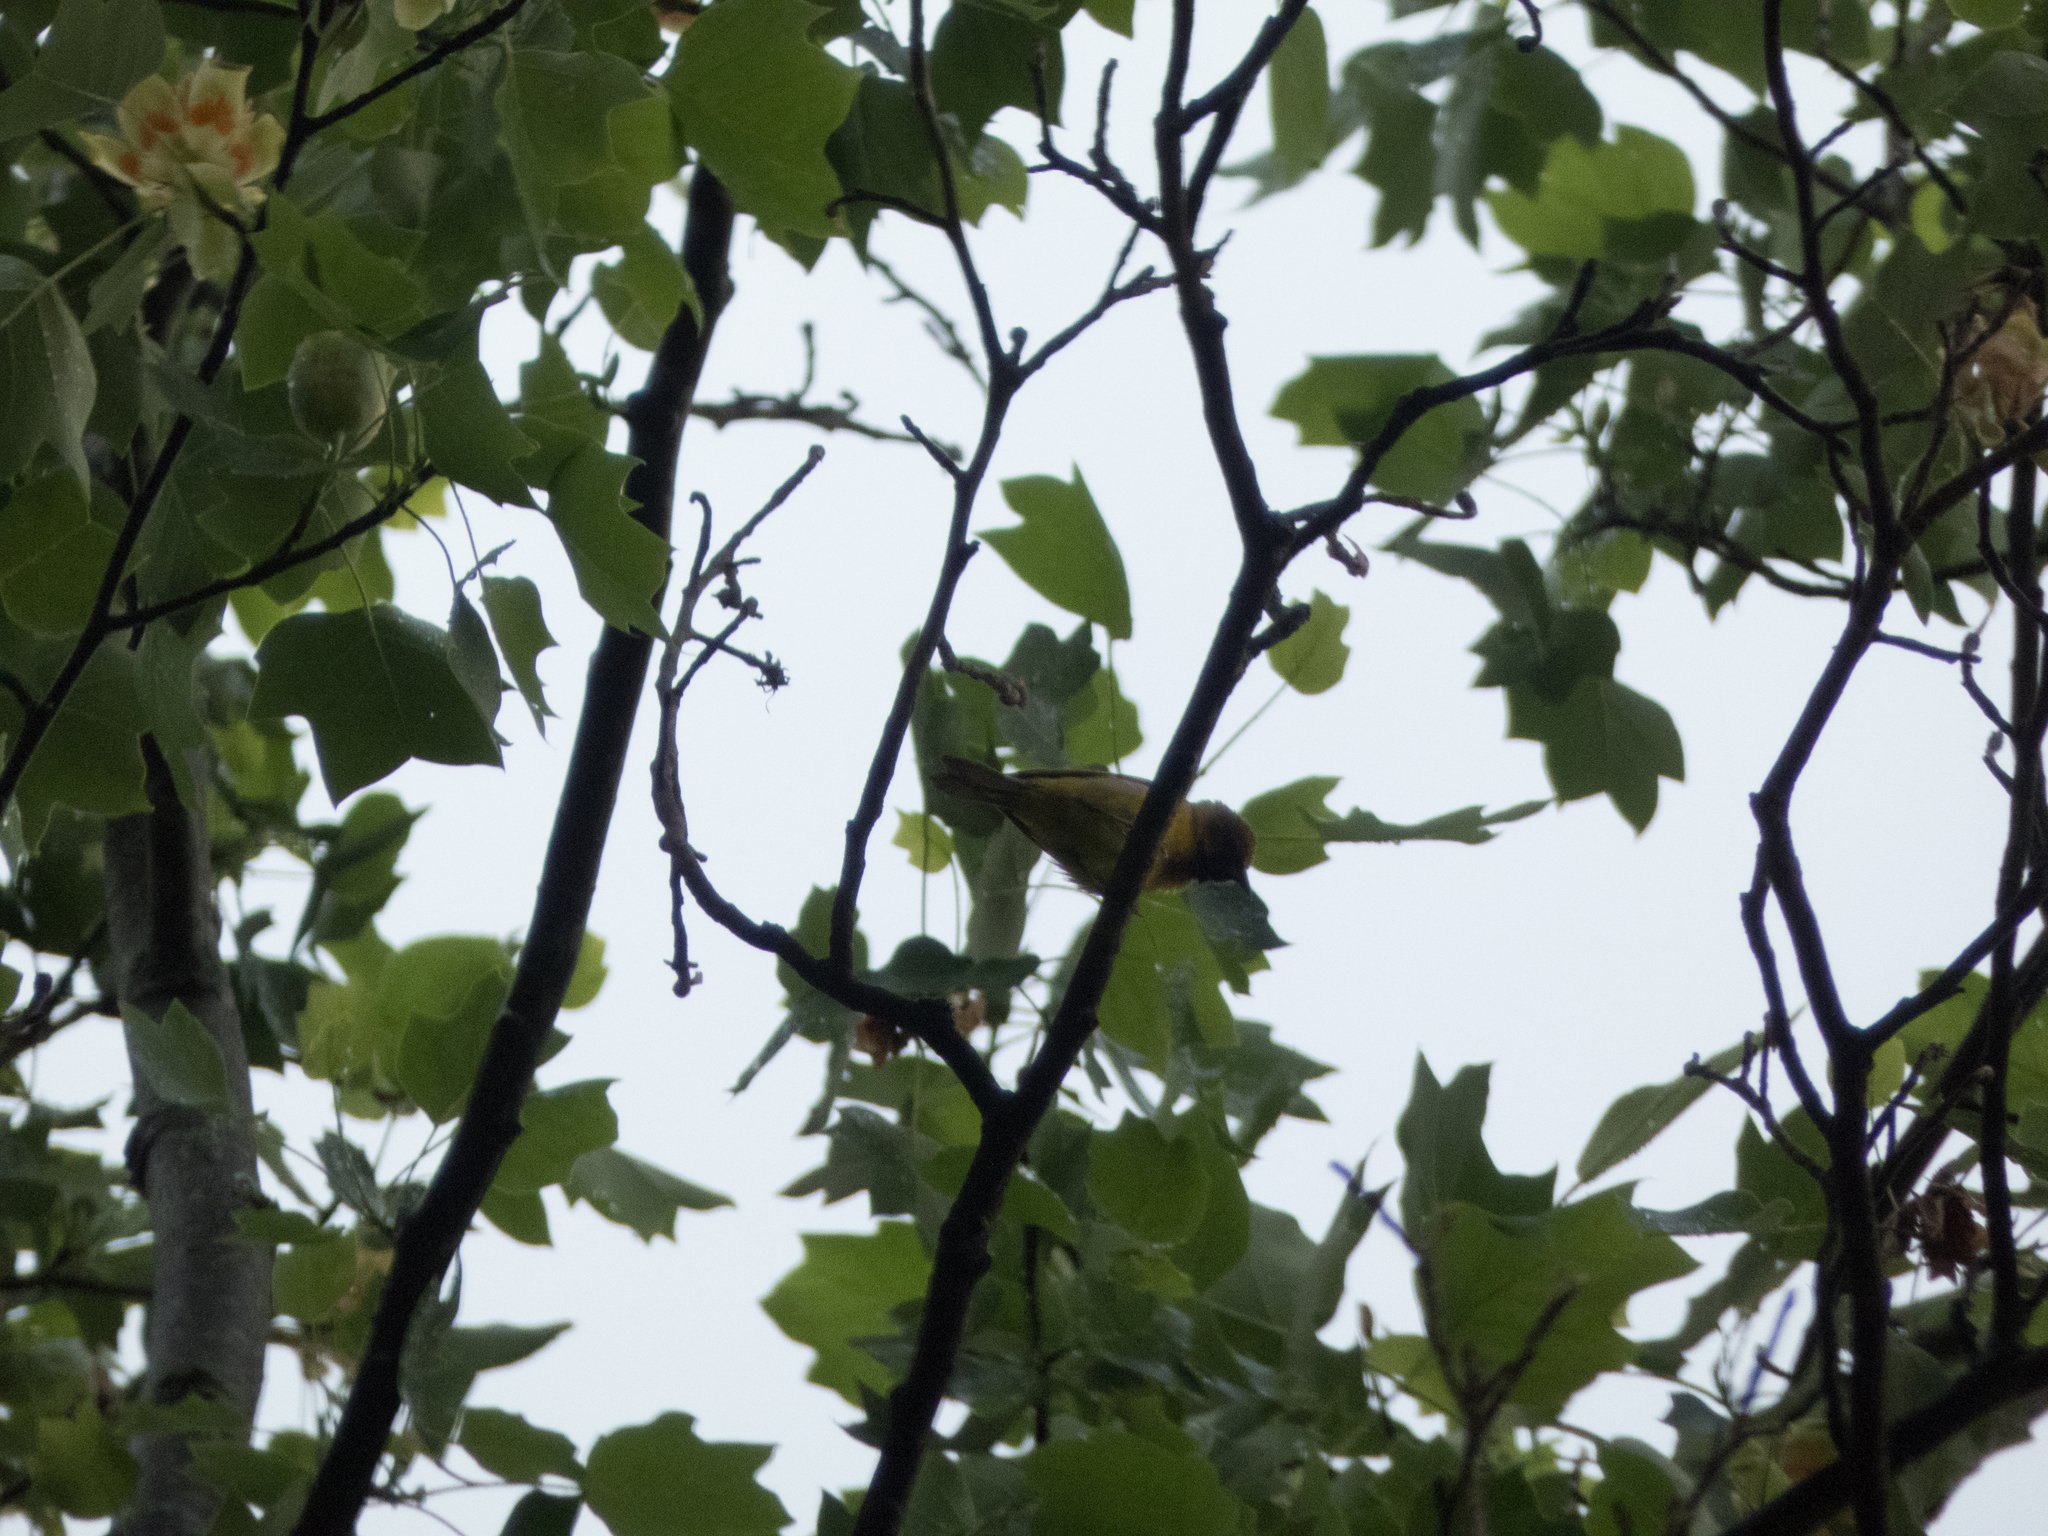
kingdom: Animalia
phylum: Chordata
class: Aves
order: Passeriformes
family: Icteridae
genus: Icterus
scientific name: Icterus spurius
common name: Orchard oriole
